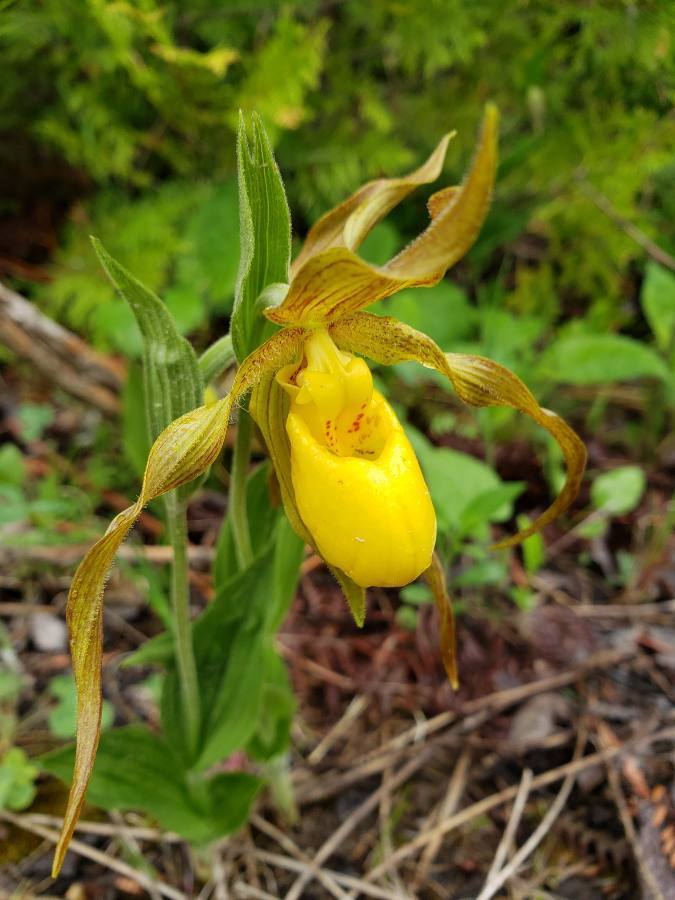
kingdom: Plantae
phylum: Tracheophyta
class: Liliopsida
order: Asparagales
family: Orchidaceae
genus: Cypripedium
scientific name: Cypripedium parviflorum
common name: American yellow lady's-slipper
